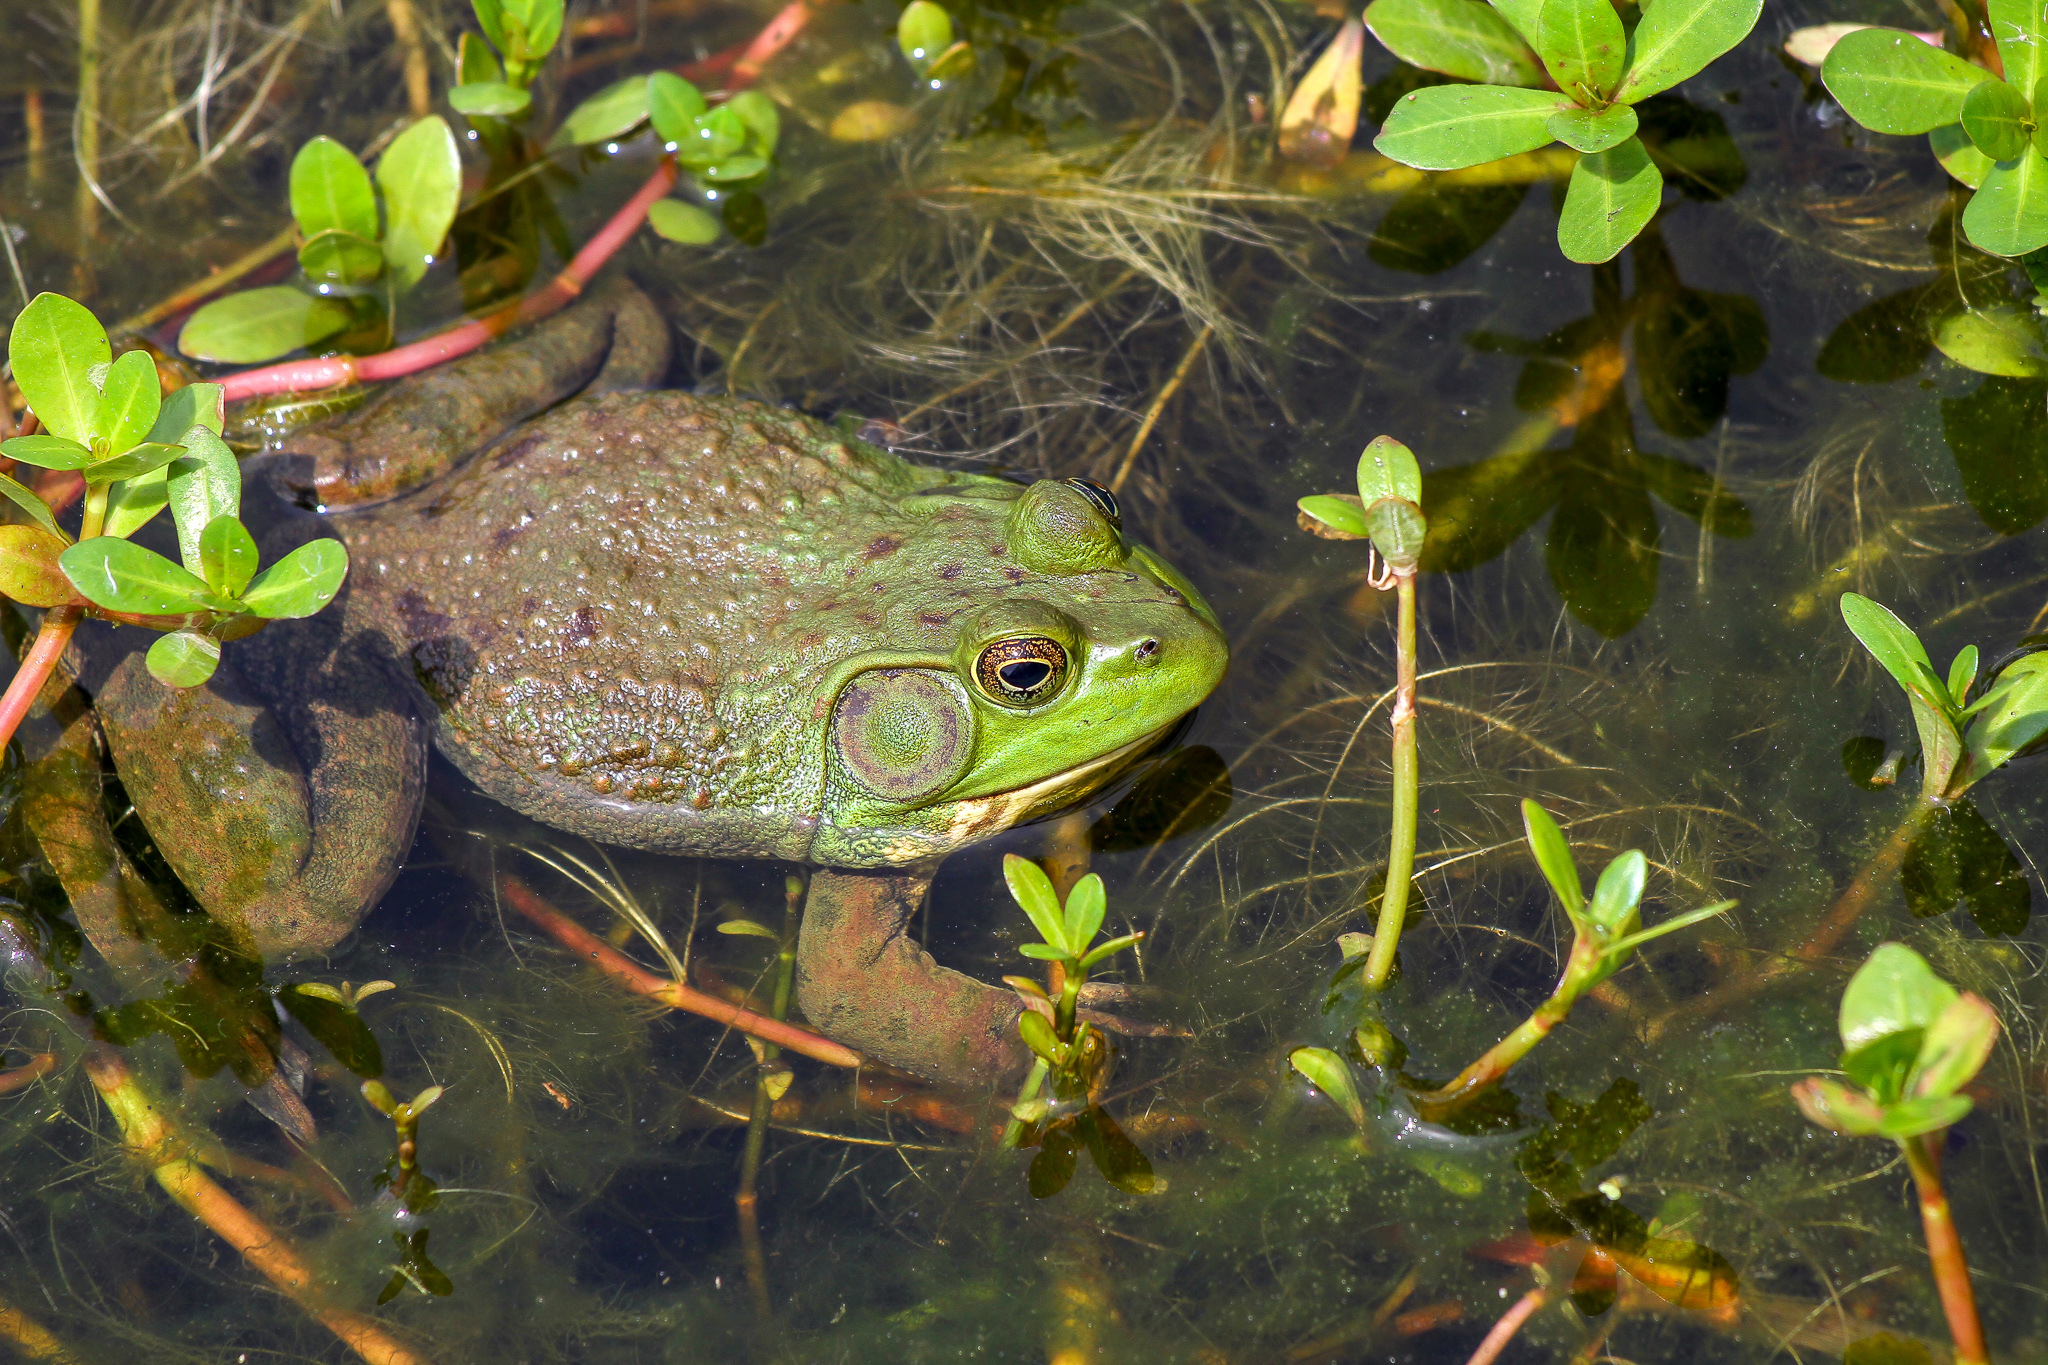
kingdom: Animalia
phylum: Chordata
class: Amphibia
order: Anura
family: Ranidae
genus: Lithobates
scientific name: Lithobates catesbeianus
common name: American bullfrog
